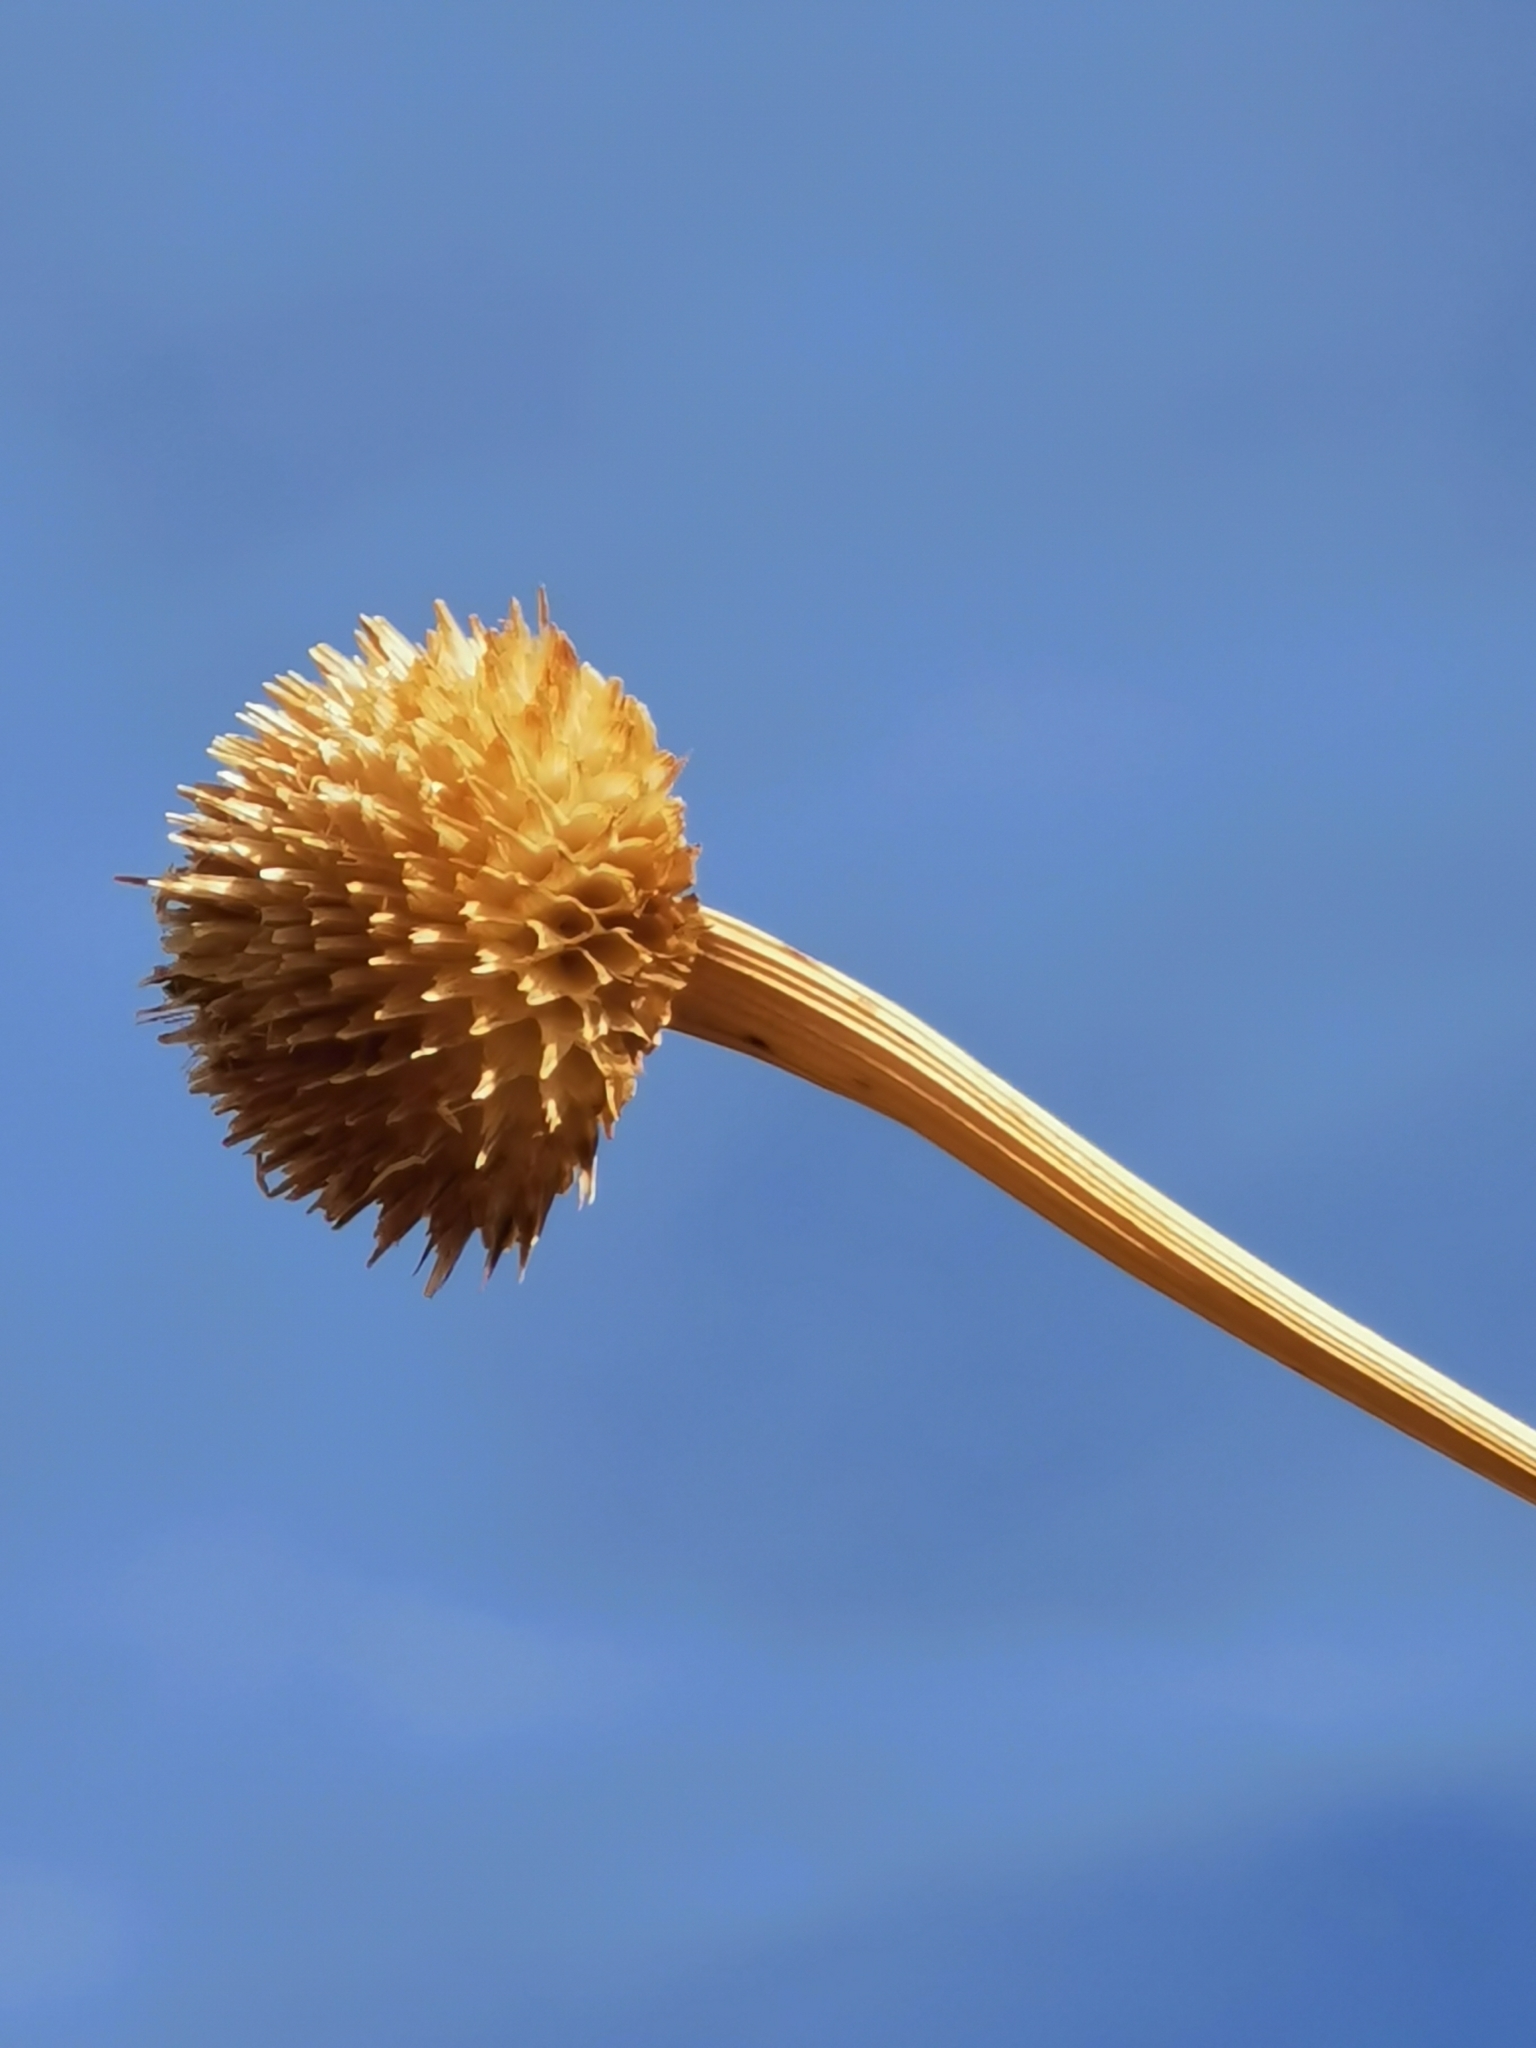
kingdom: Plantae
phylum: Tracheophyta
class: Magnoliopsida
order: Asterales
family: Asteraceae
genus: Tithonia
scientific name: Tithonia tubaeformis
